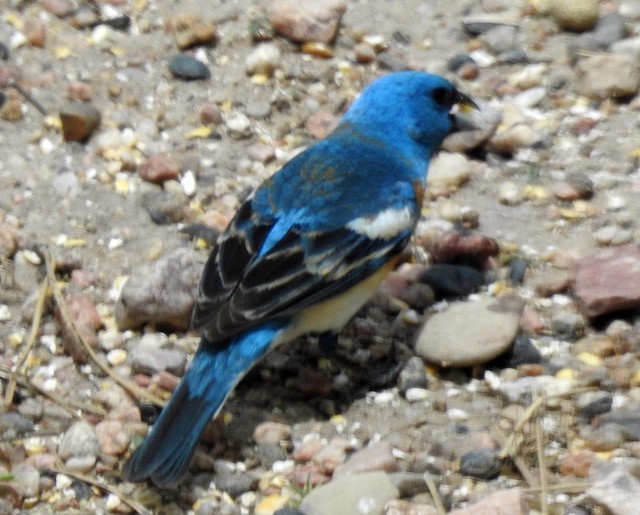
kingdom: Animalia
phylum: Chordata
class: Aves
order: Passeriformes
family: Cardinalidae
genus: Passerina
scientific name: Passerina amoena
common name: Lazuli bunting
